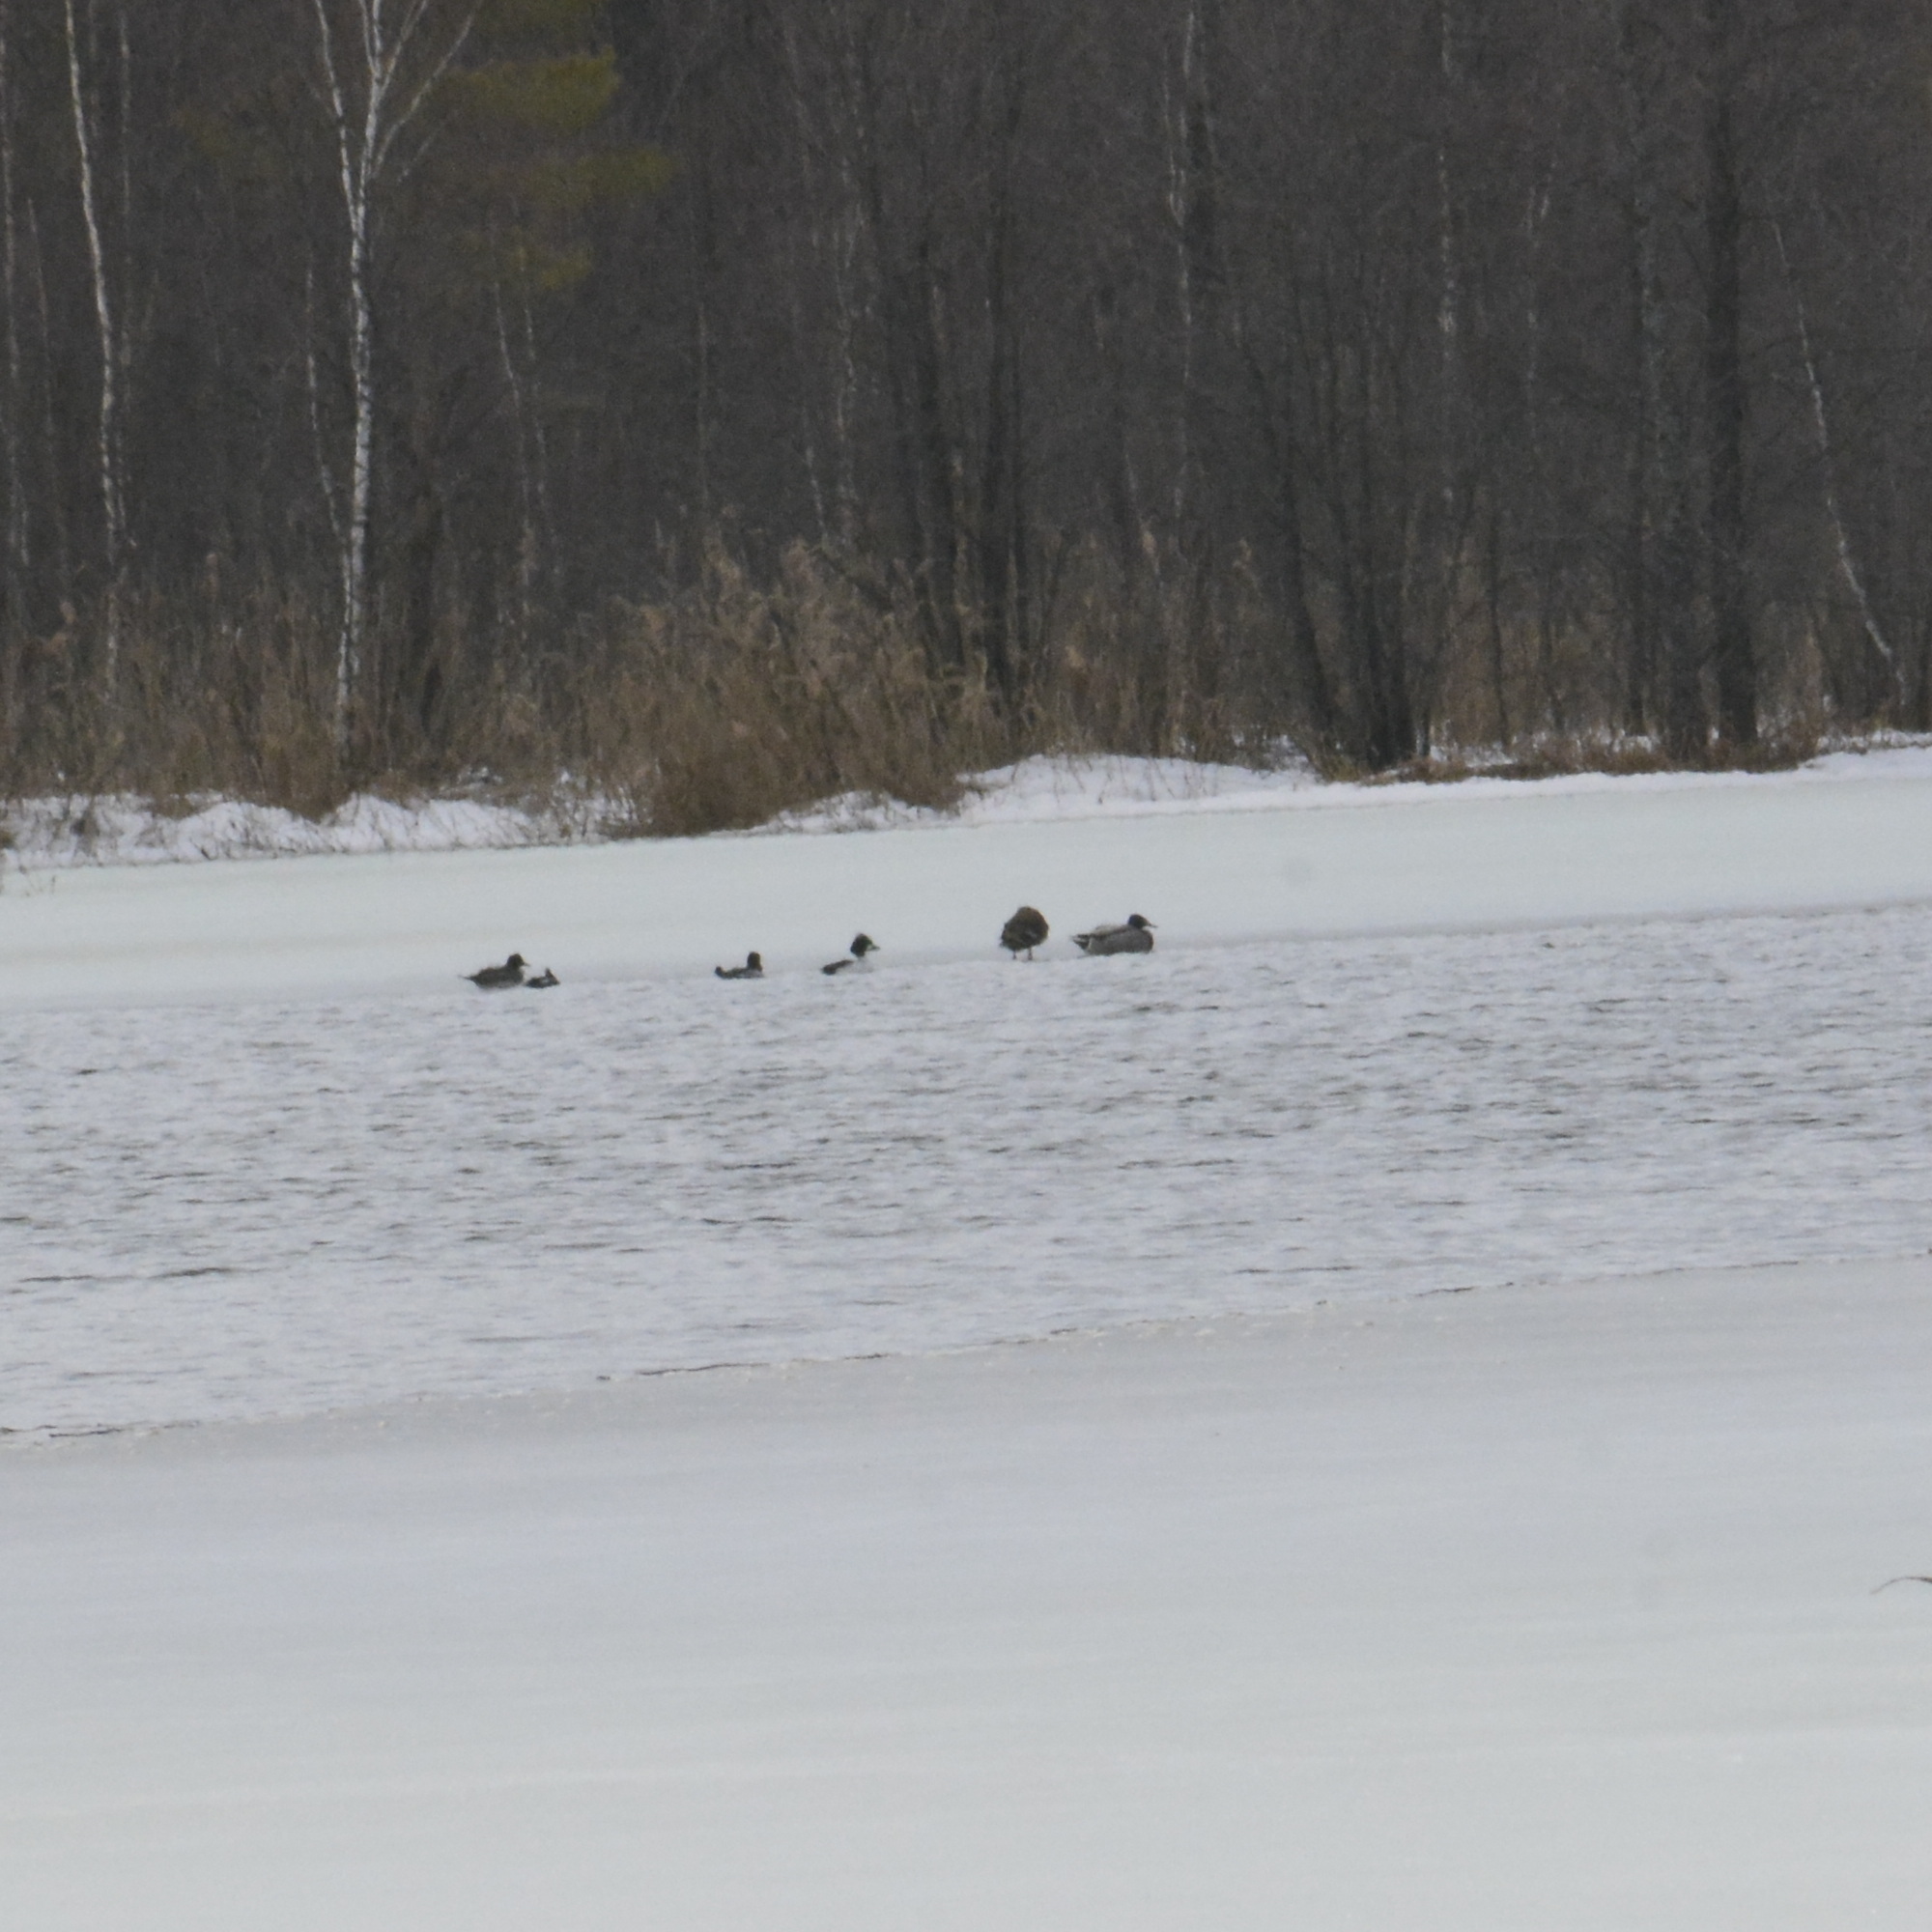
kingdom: Animalia
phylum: Chordata
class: Aves
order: Anseriformes
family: Anatidae
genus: Bucephala
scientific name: Bucephala clangula
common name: Common goldeneye
